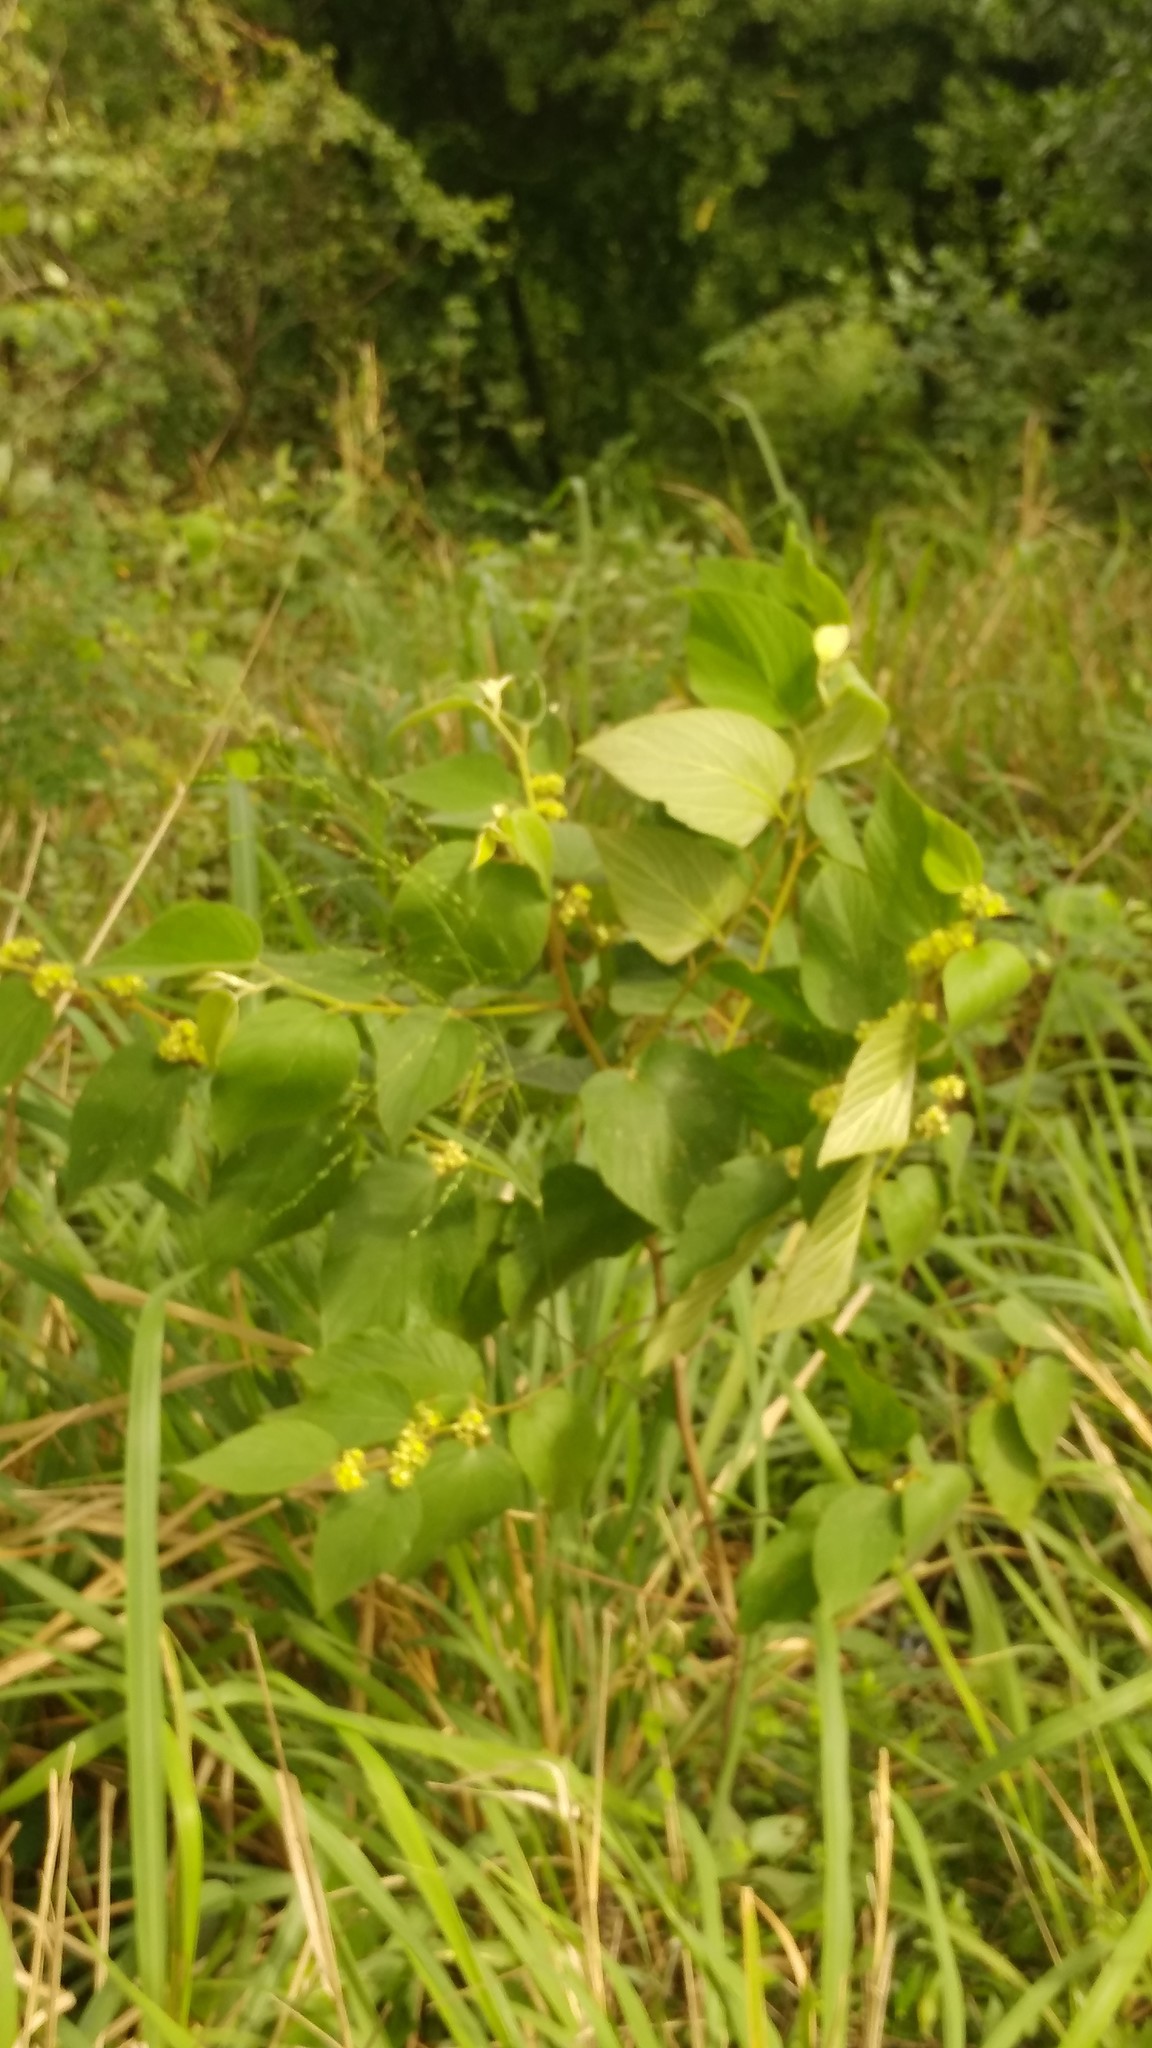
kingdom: Plantae
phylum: Tracheophyta
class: Magnoliopsida
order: Rosales
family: Rhamnaceae
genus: Colubrina
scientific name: Colubrina greggii
